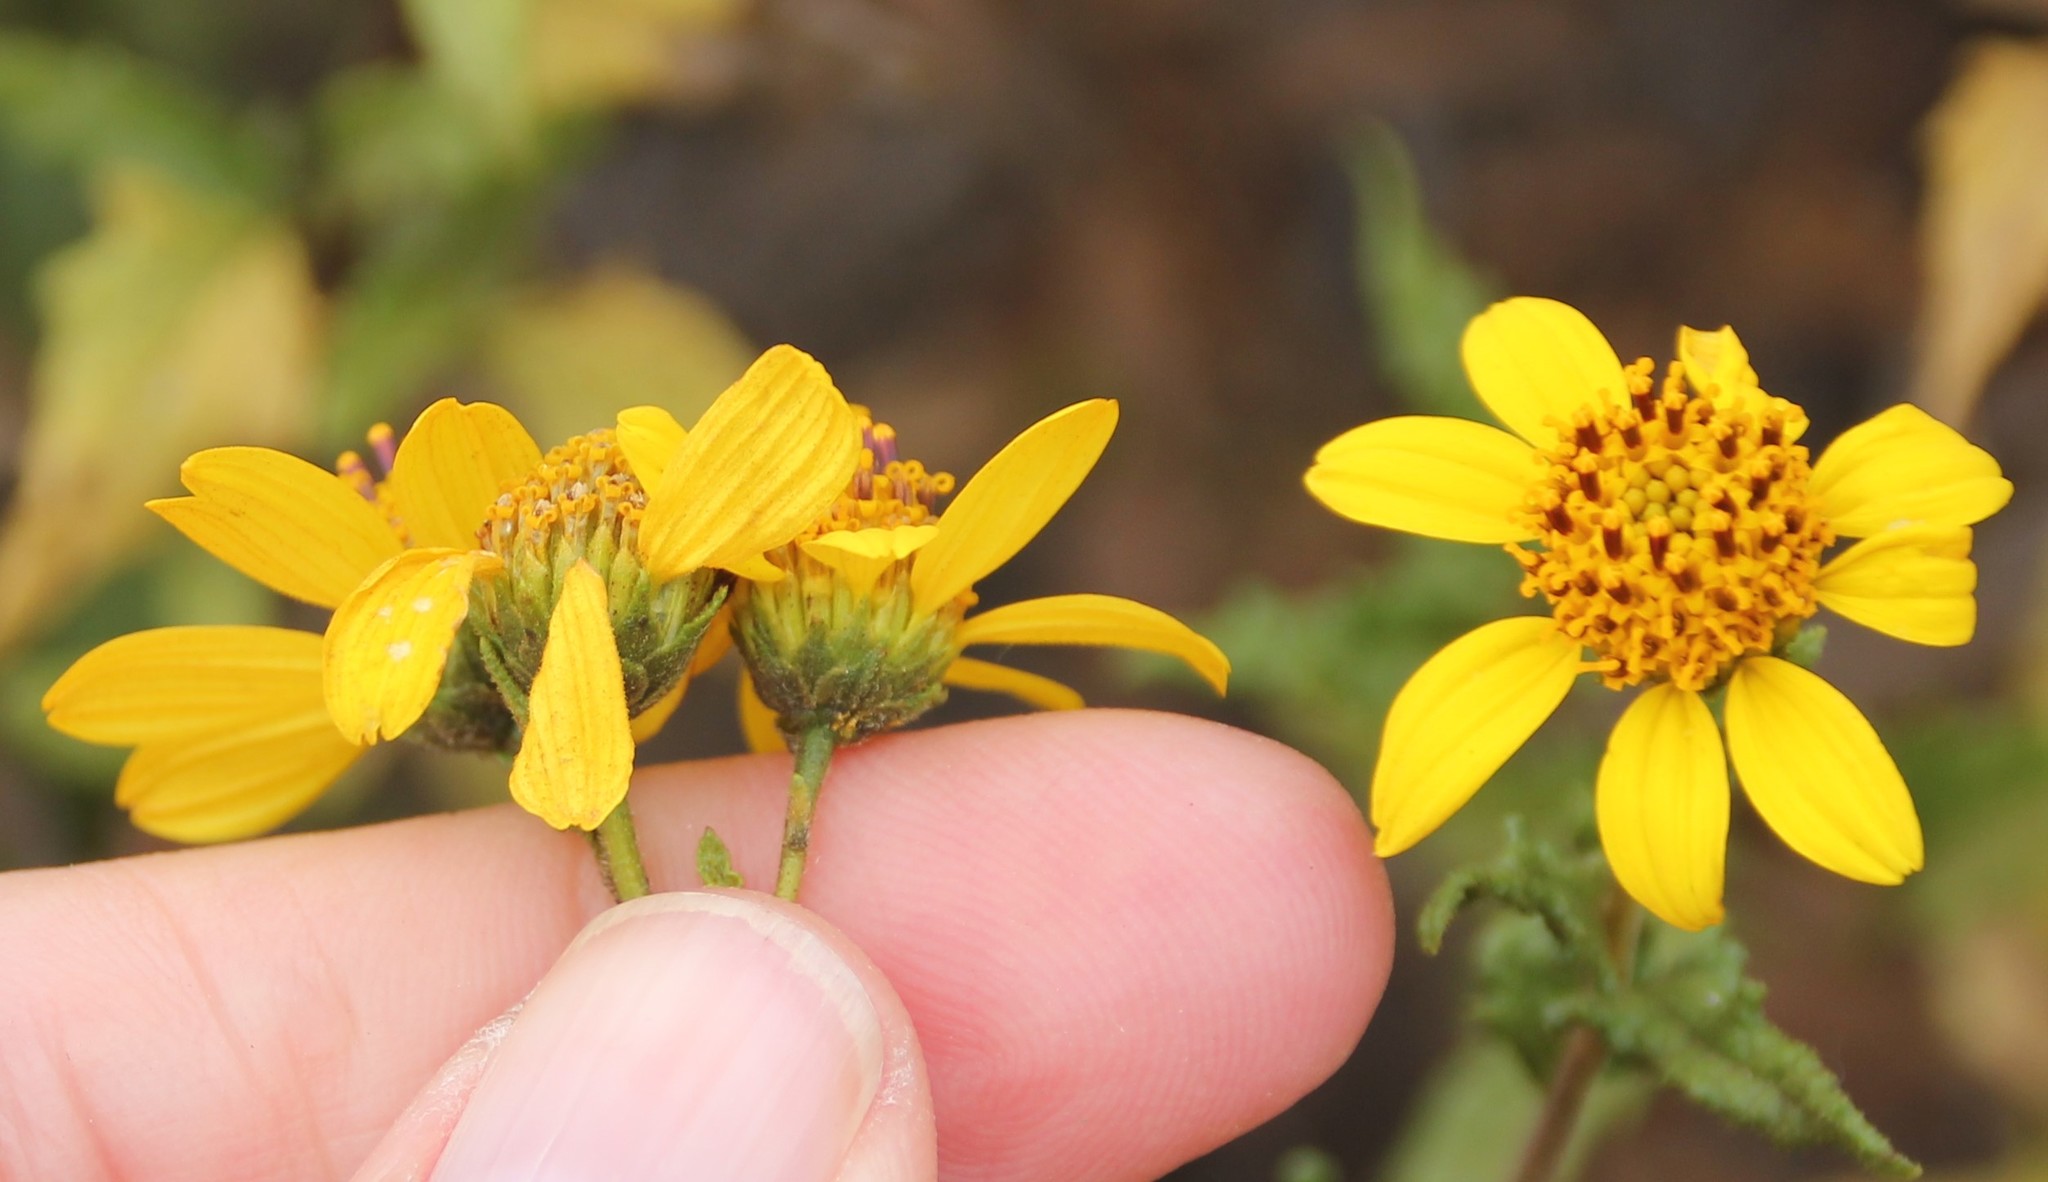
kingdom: Plantae
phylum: Tracheophyta
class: Magnoliopsida
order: Asterales
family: Asteraceae
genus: Bahiopsis
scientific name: Bahiopsis laciniata
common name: San diego county viguiera
